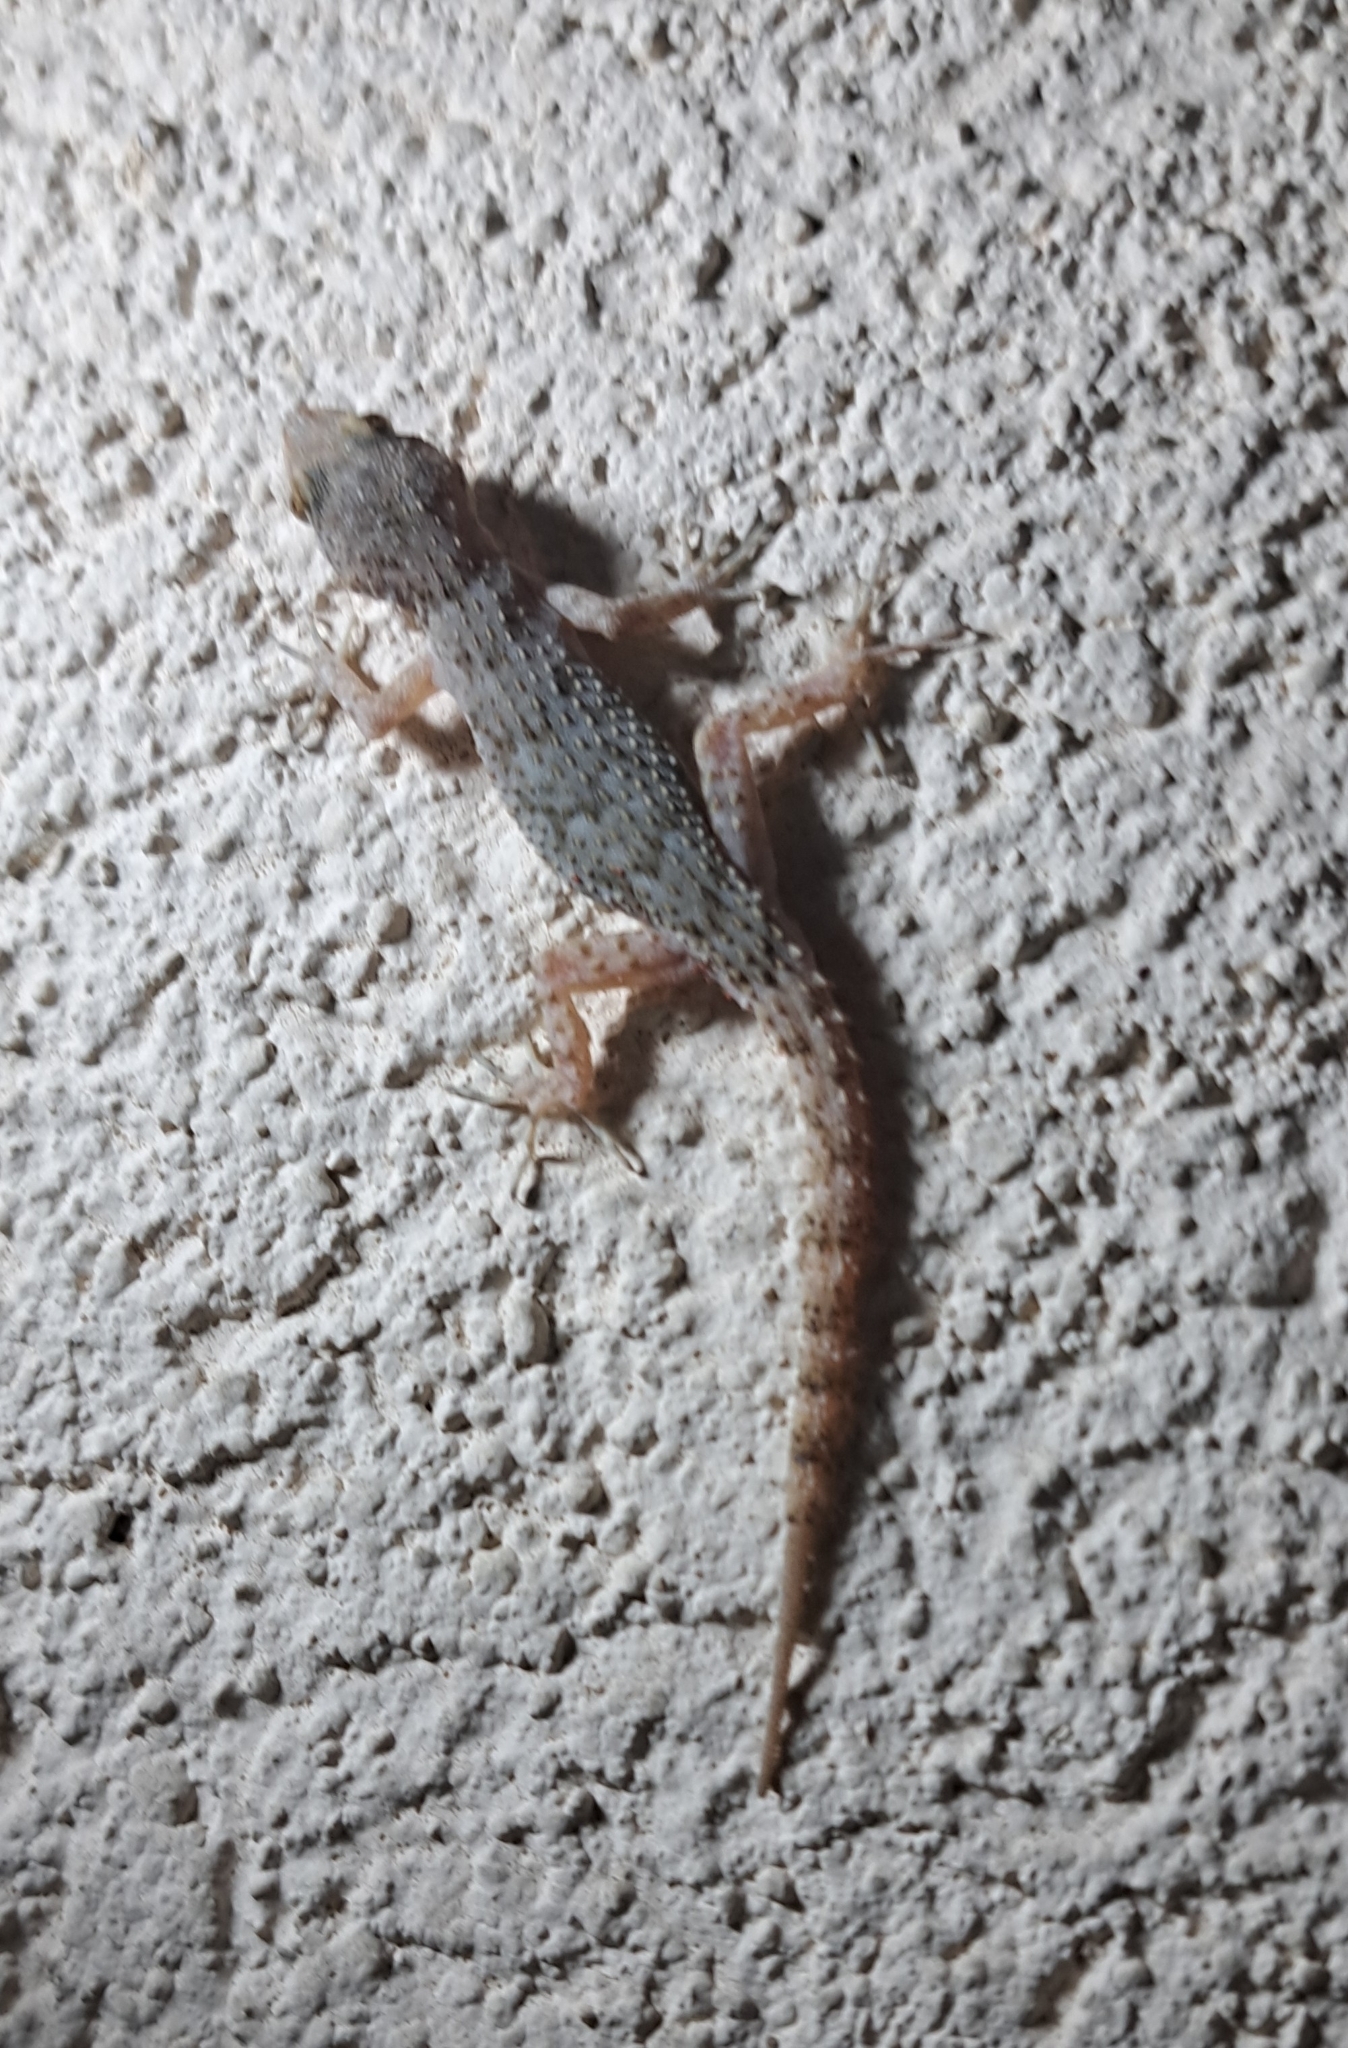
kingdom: Animalia
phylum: Chordata
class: Squamata
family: Gekkonidae
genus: Mediodactylus
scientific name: Mediodactylus kotschyi
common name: Kotschy's gecko
